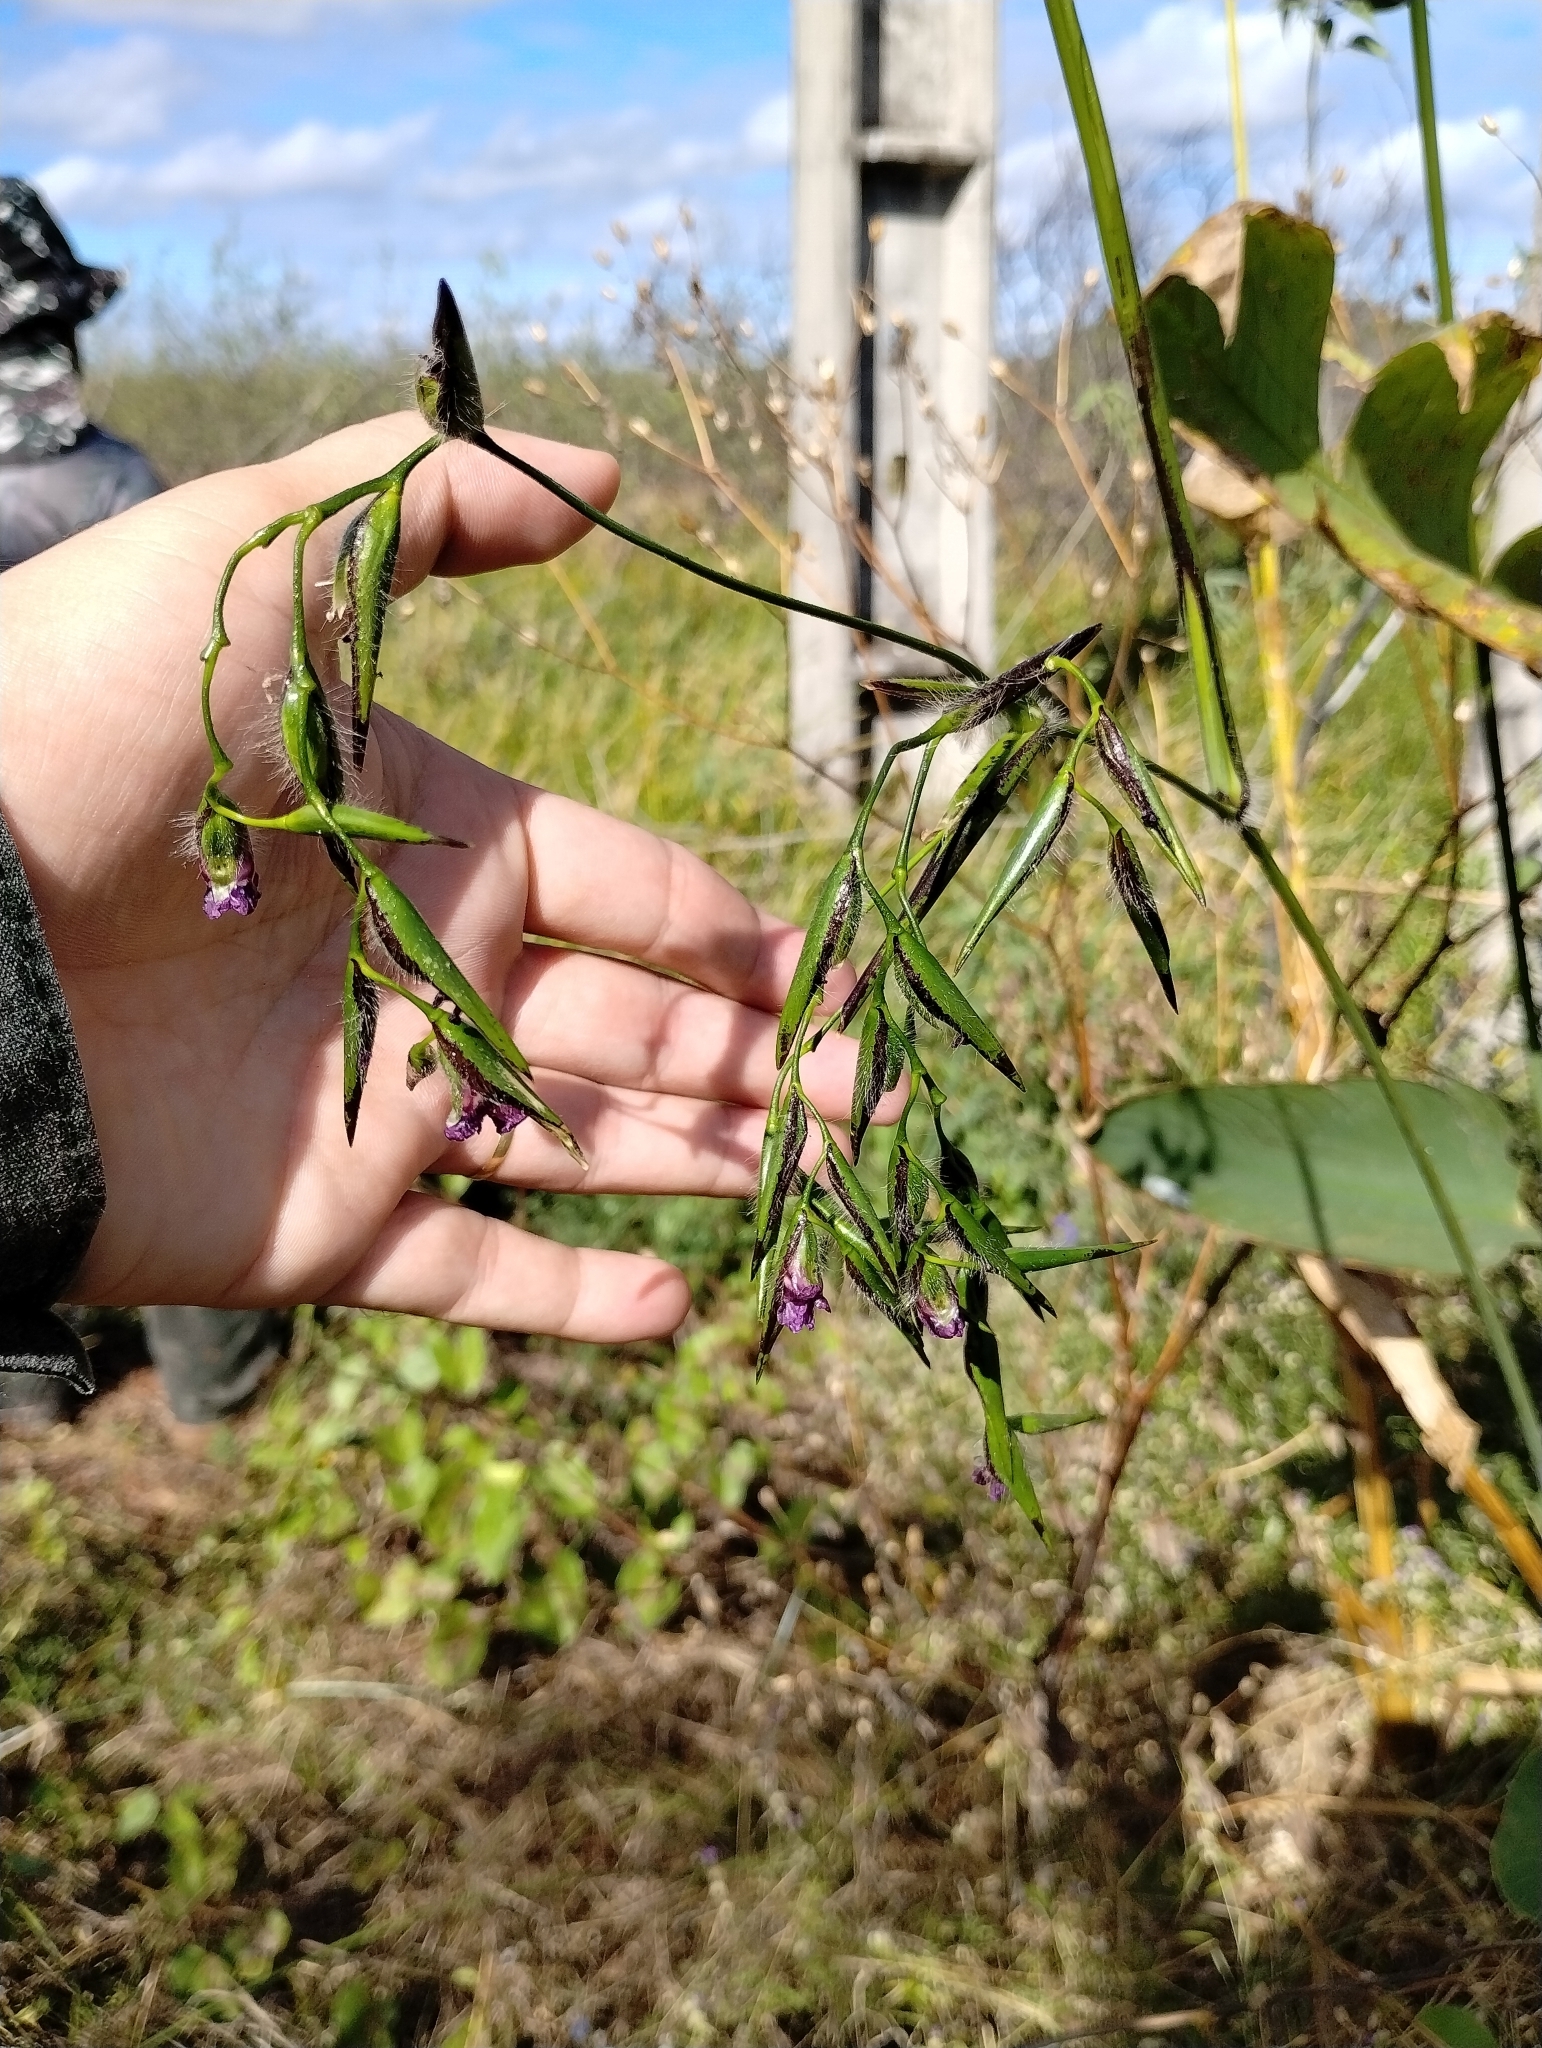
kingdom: Plantae
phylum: Tracheophyta
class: Liliopsida
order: Zingiberales
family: Marantaceae
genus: Thalia
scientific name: Thalia geniculata
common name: Arrowroot
